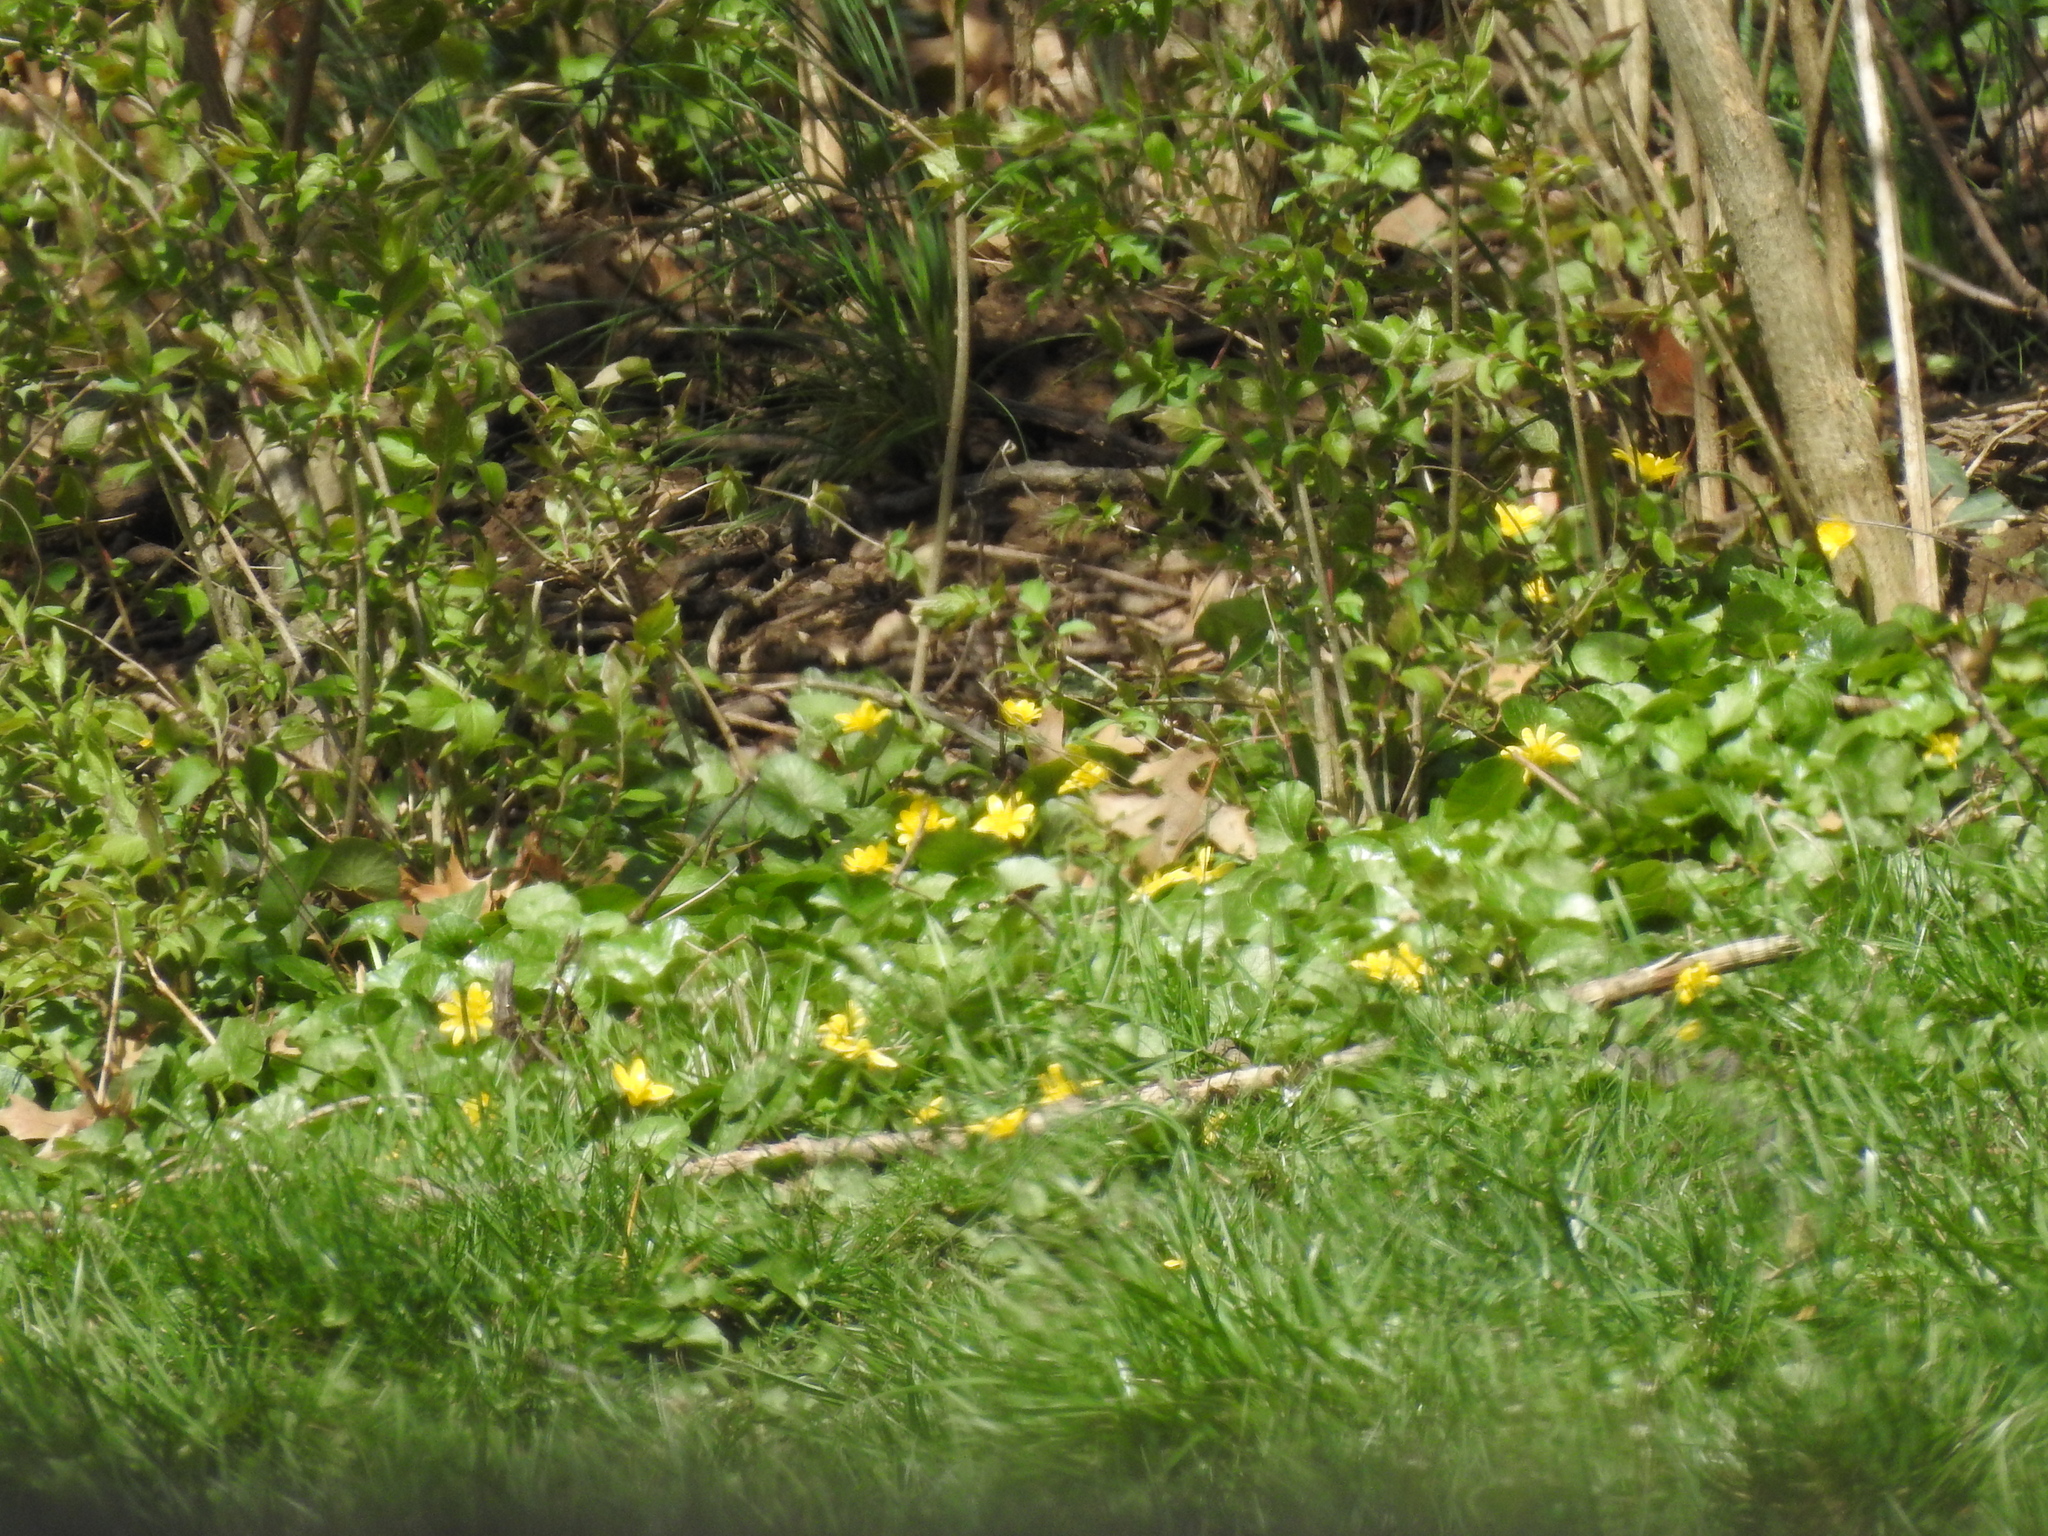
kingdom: Plantae
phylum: Tracheophyta
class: Magnoliopsida
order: Ranunculales
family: Ranunculaceae
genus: Ficaria
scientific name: Ficaria verna
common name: Lesser celandine
